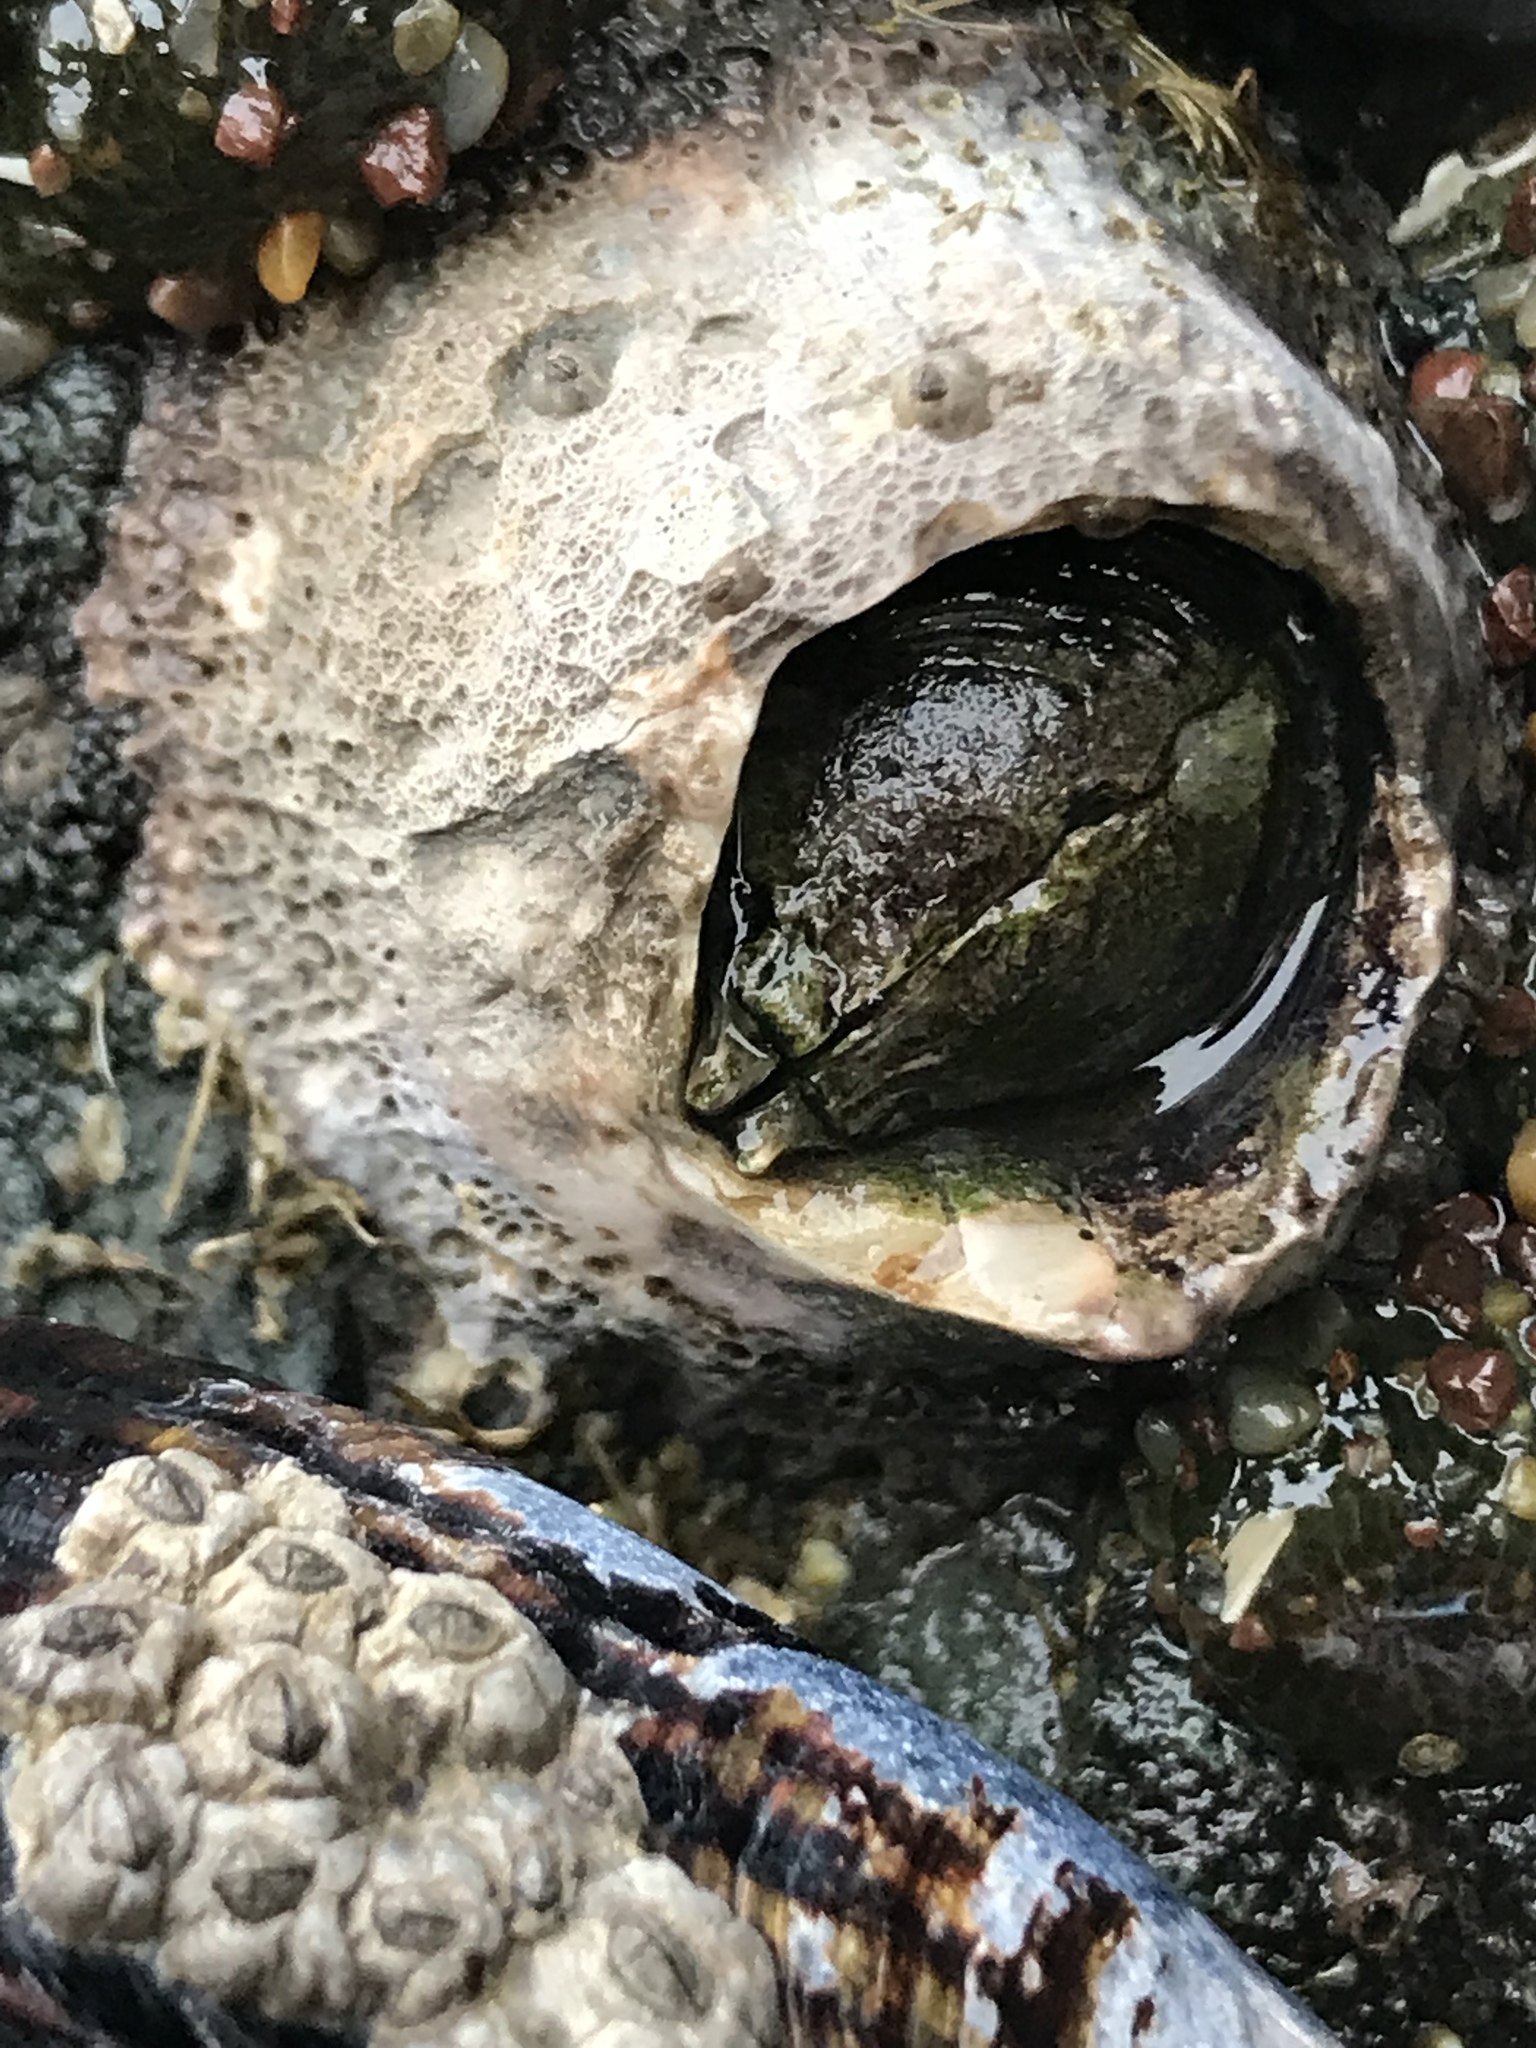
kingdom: Animalia
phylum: Arthropoda
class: Maxillopoda
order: Sessilia
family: Archaeobalanidae
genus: Semibalanus
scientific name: Semibalanus cariosus
